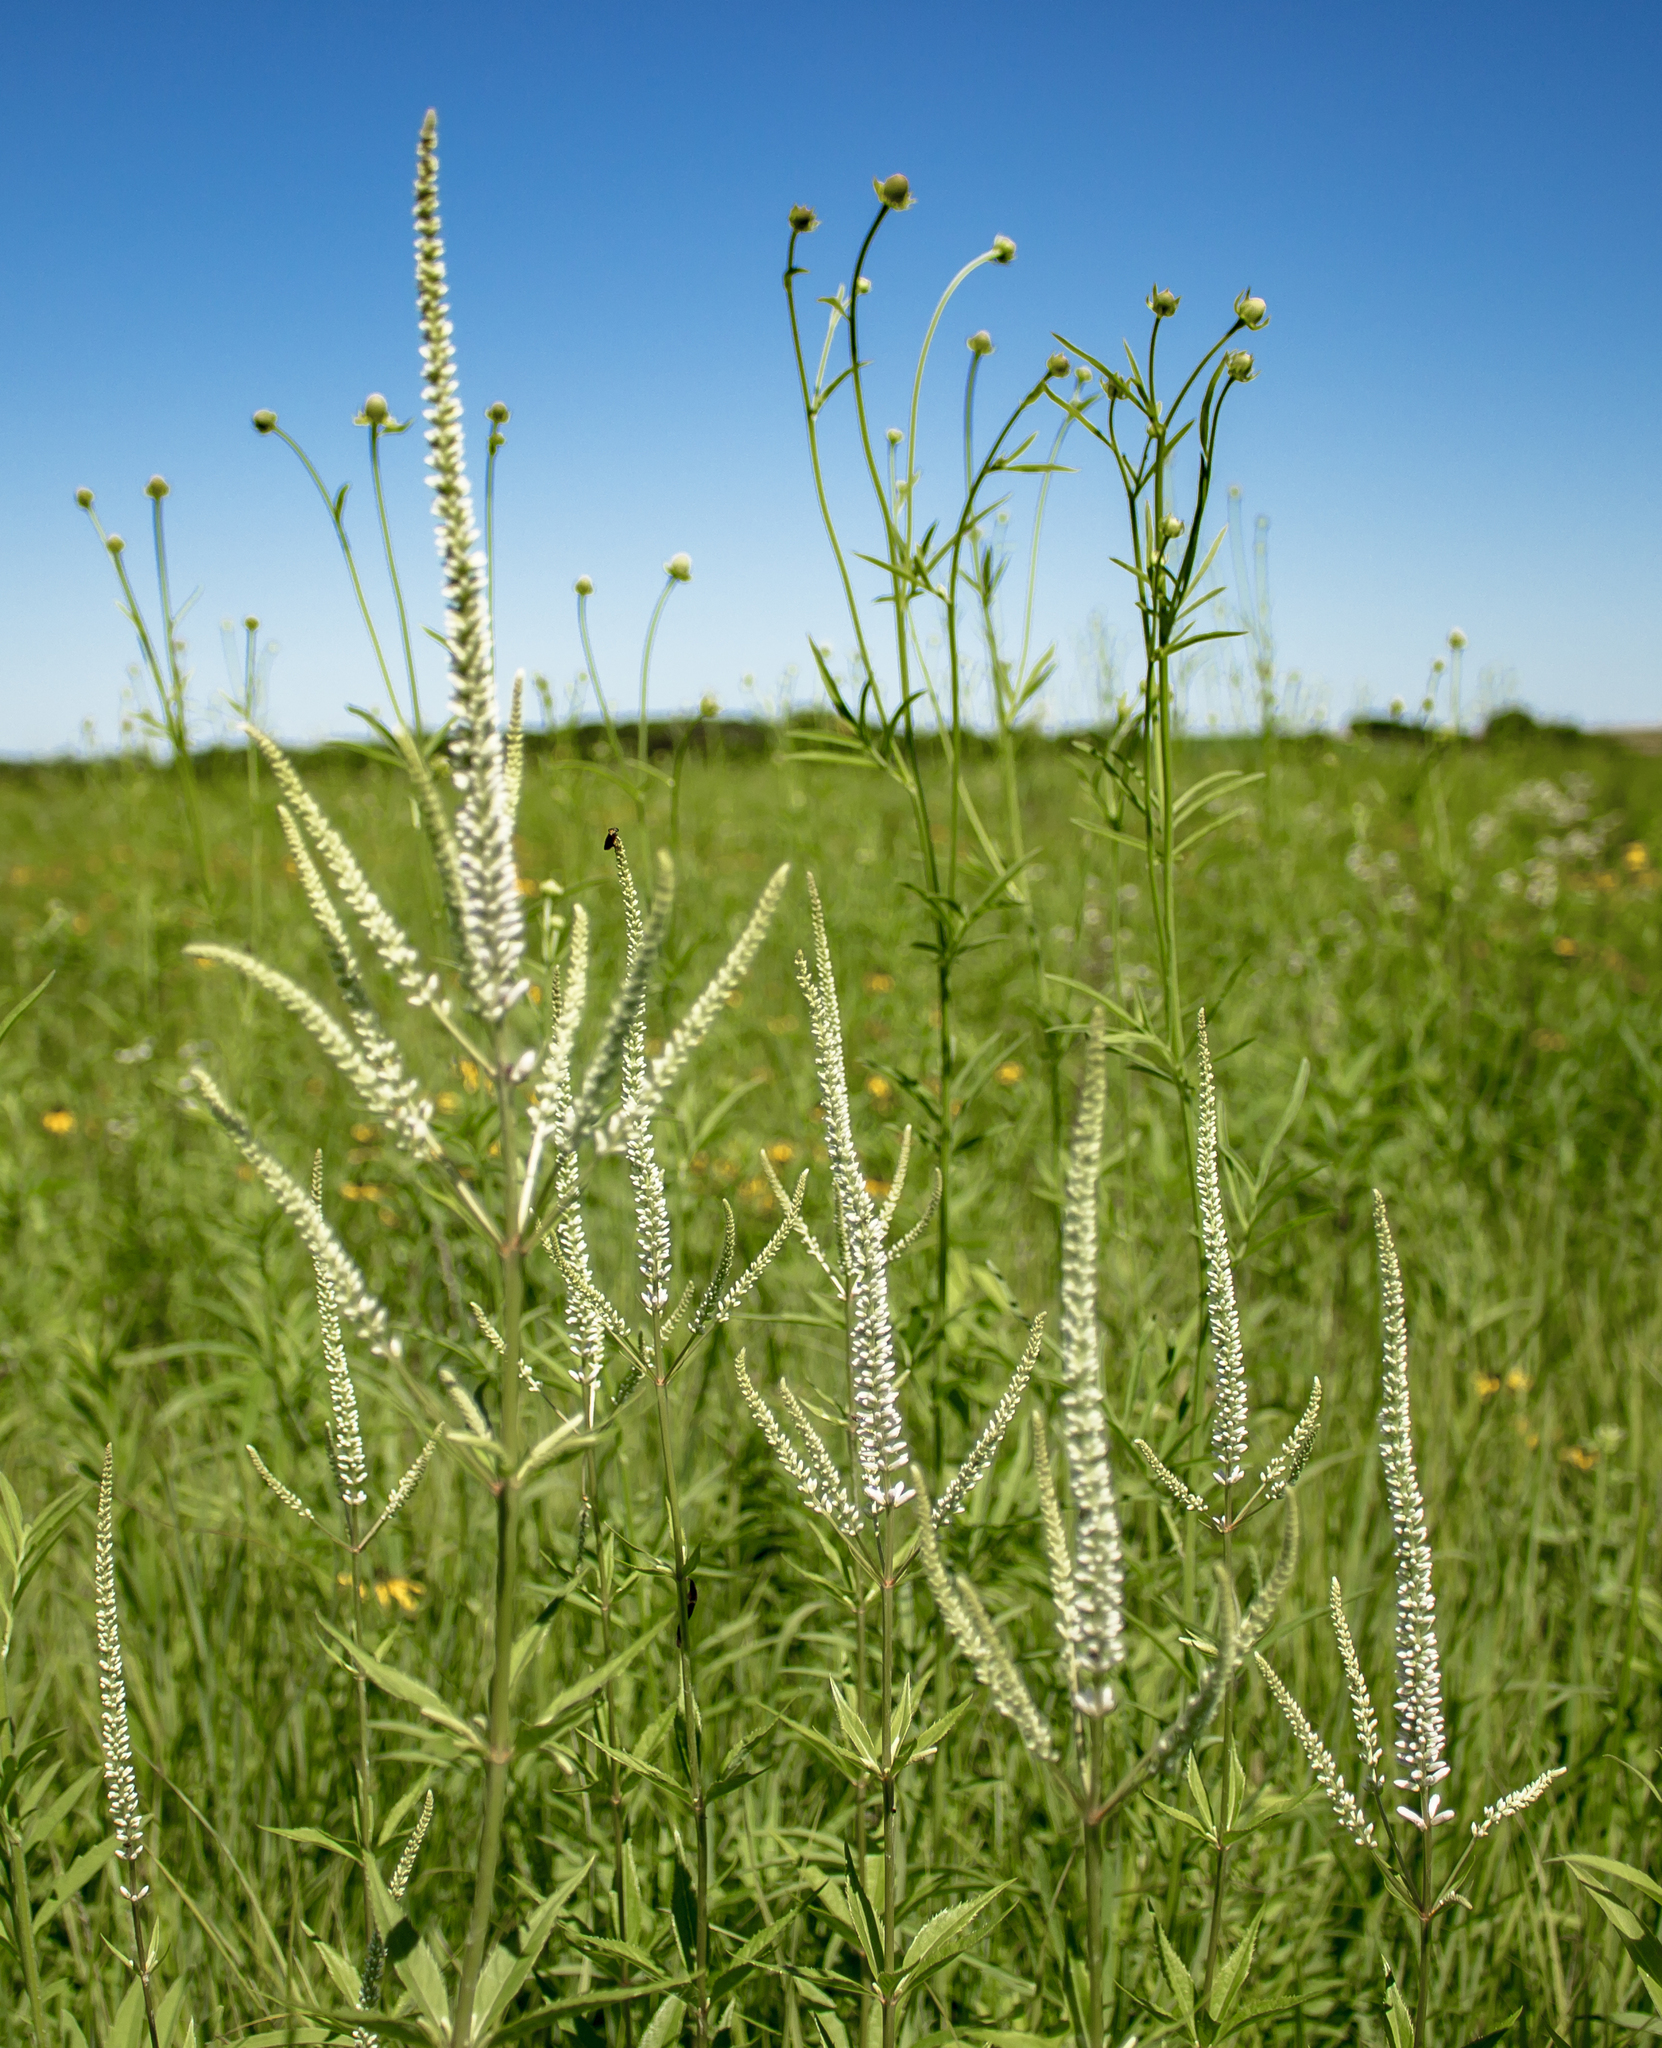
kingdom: Plantae
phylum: Tracheophyta
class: Magnoliopsida
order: Lamiales
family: Plantaginaceae
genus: Veronicastrum
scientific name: Veronicastrum virginicum
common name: Blackroot
